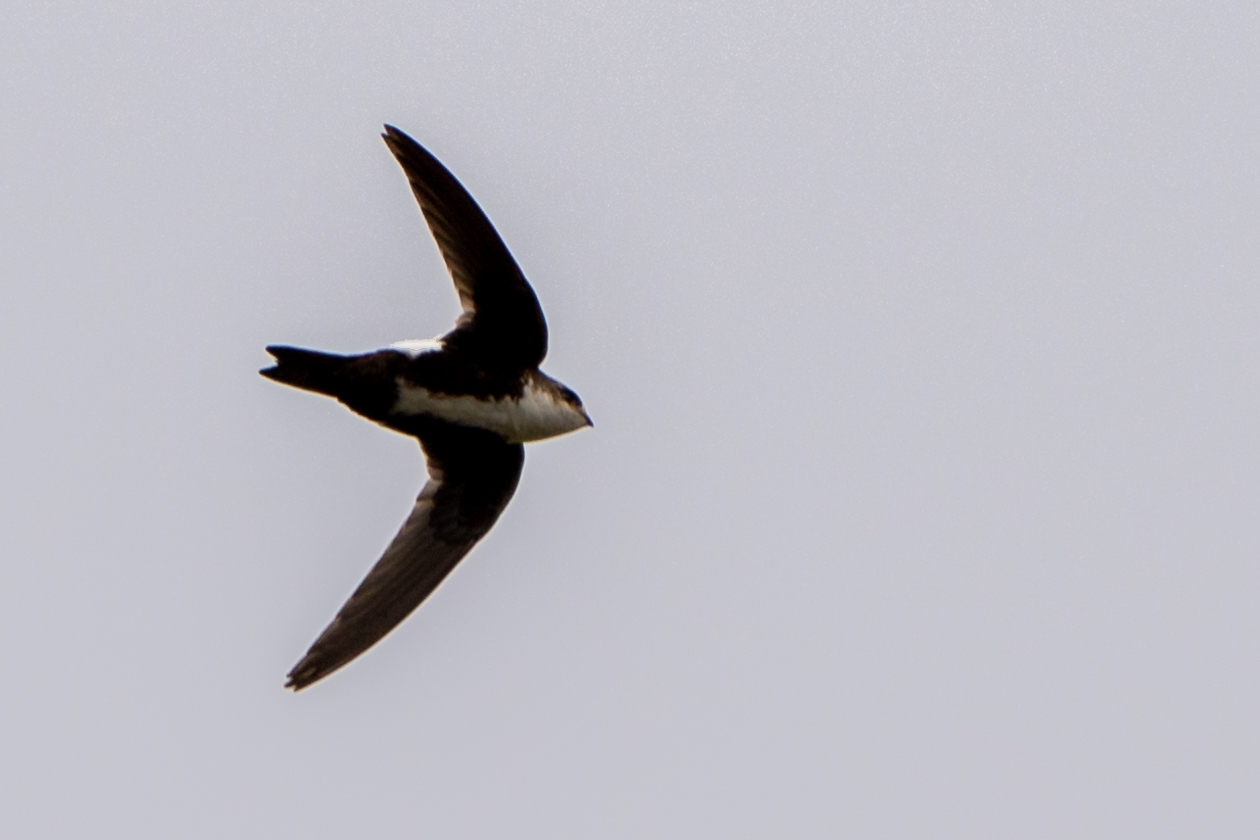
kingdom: Animalia
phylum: Chordata
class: Aves
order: Apodiformes
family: Apodidae
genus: Aeronautes
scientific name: Aeronautes saxatalis
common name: White-throated swift
